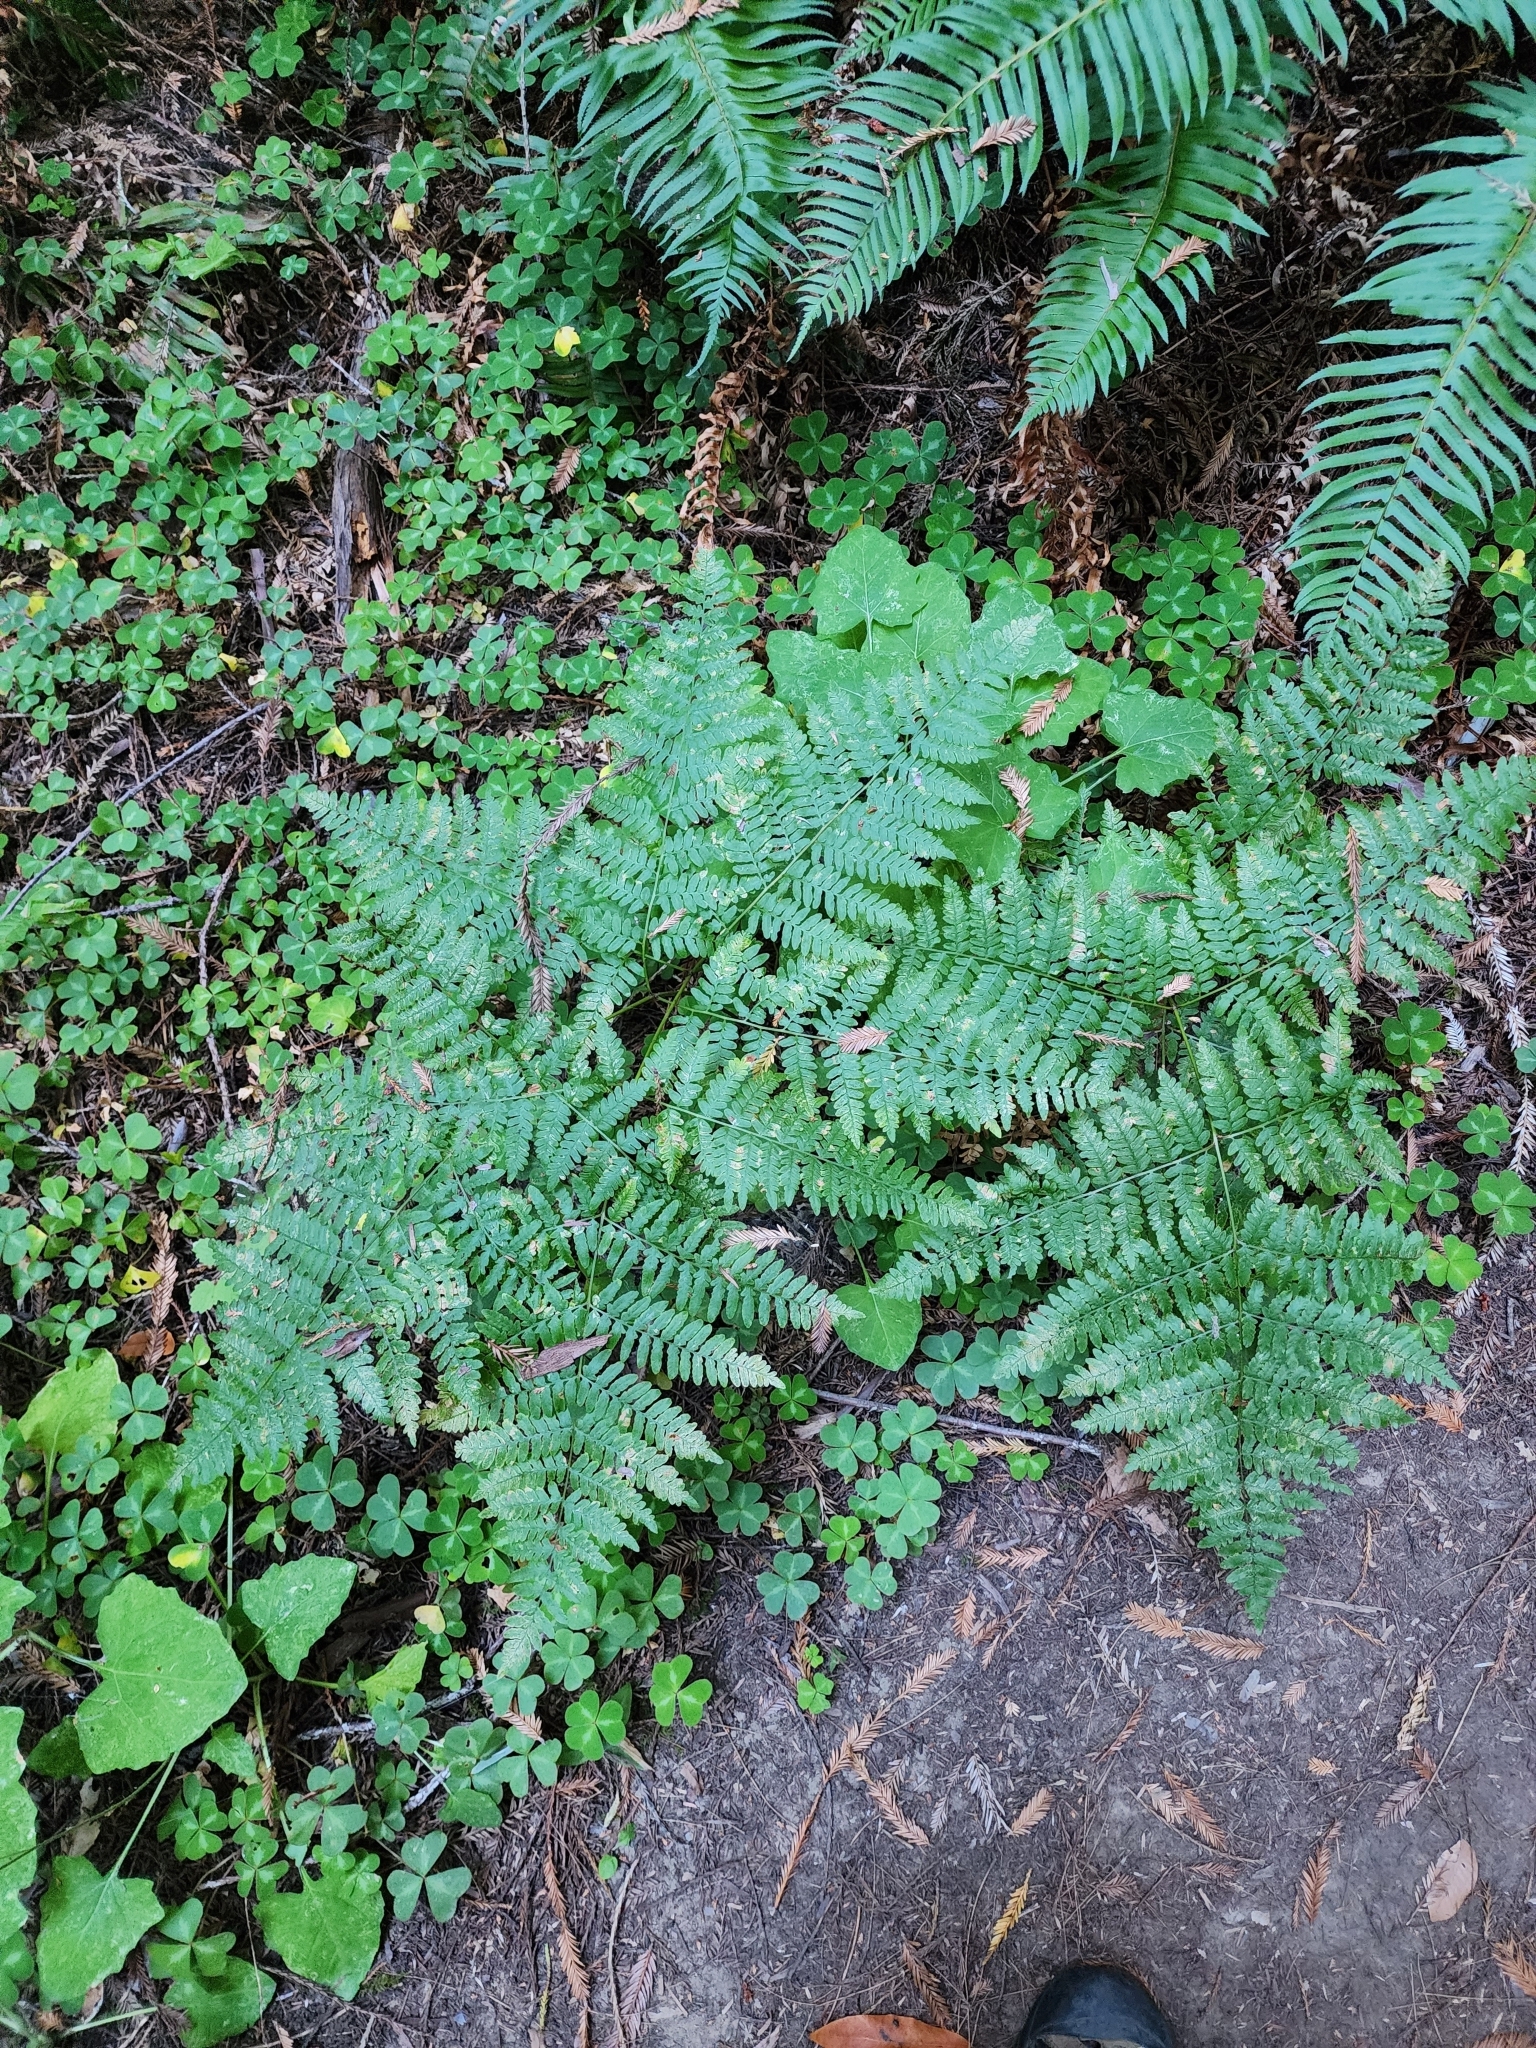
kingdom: Plantae
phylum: Tracheophyta
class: Polypodiopsida
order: Polypodiales
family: Dennstaedtiaceae
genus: Pteridium
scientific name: Pteridium aquilinum
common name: Bracken
